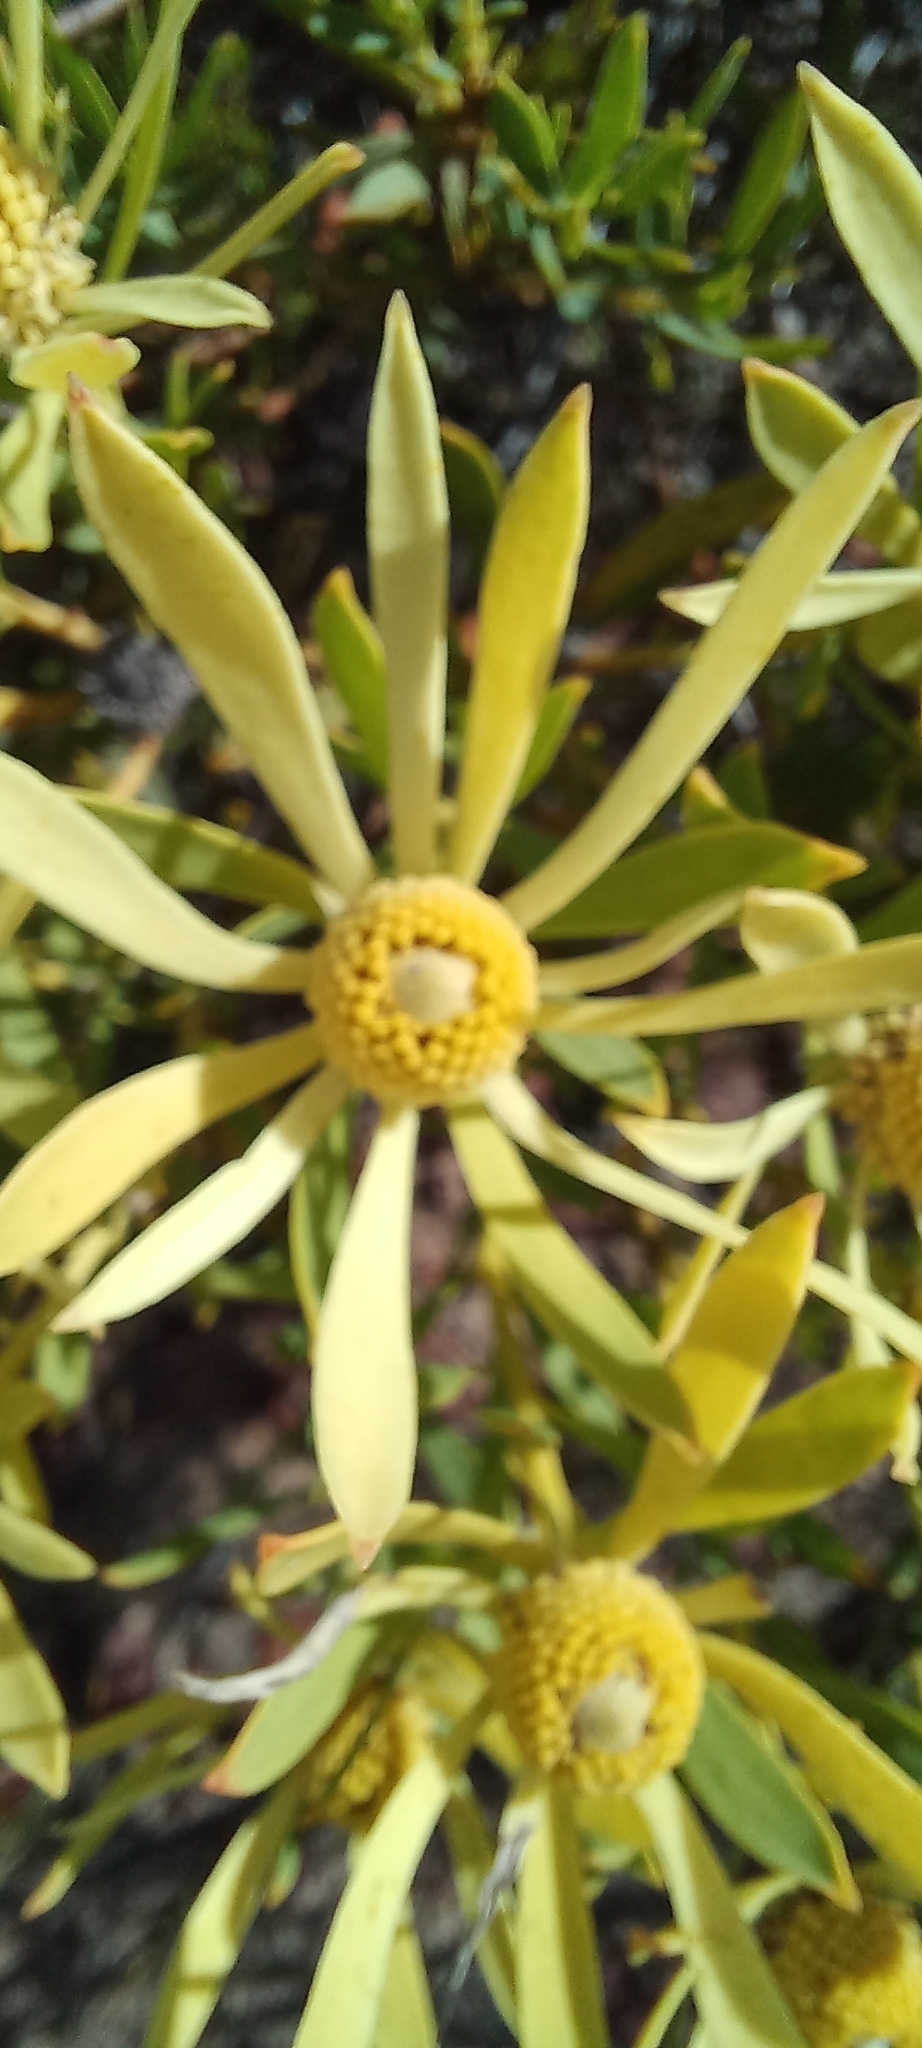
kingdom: Plantae
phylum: Tracheophyta
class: Magnoliopsida
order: Proteales
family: Proteaceae
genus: Leucadendron
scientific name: Leucadendron salignum
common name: Common sunshine conebush
